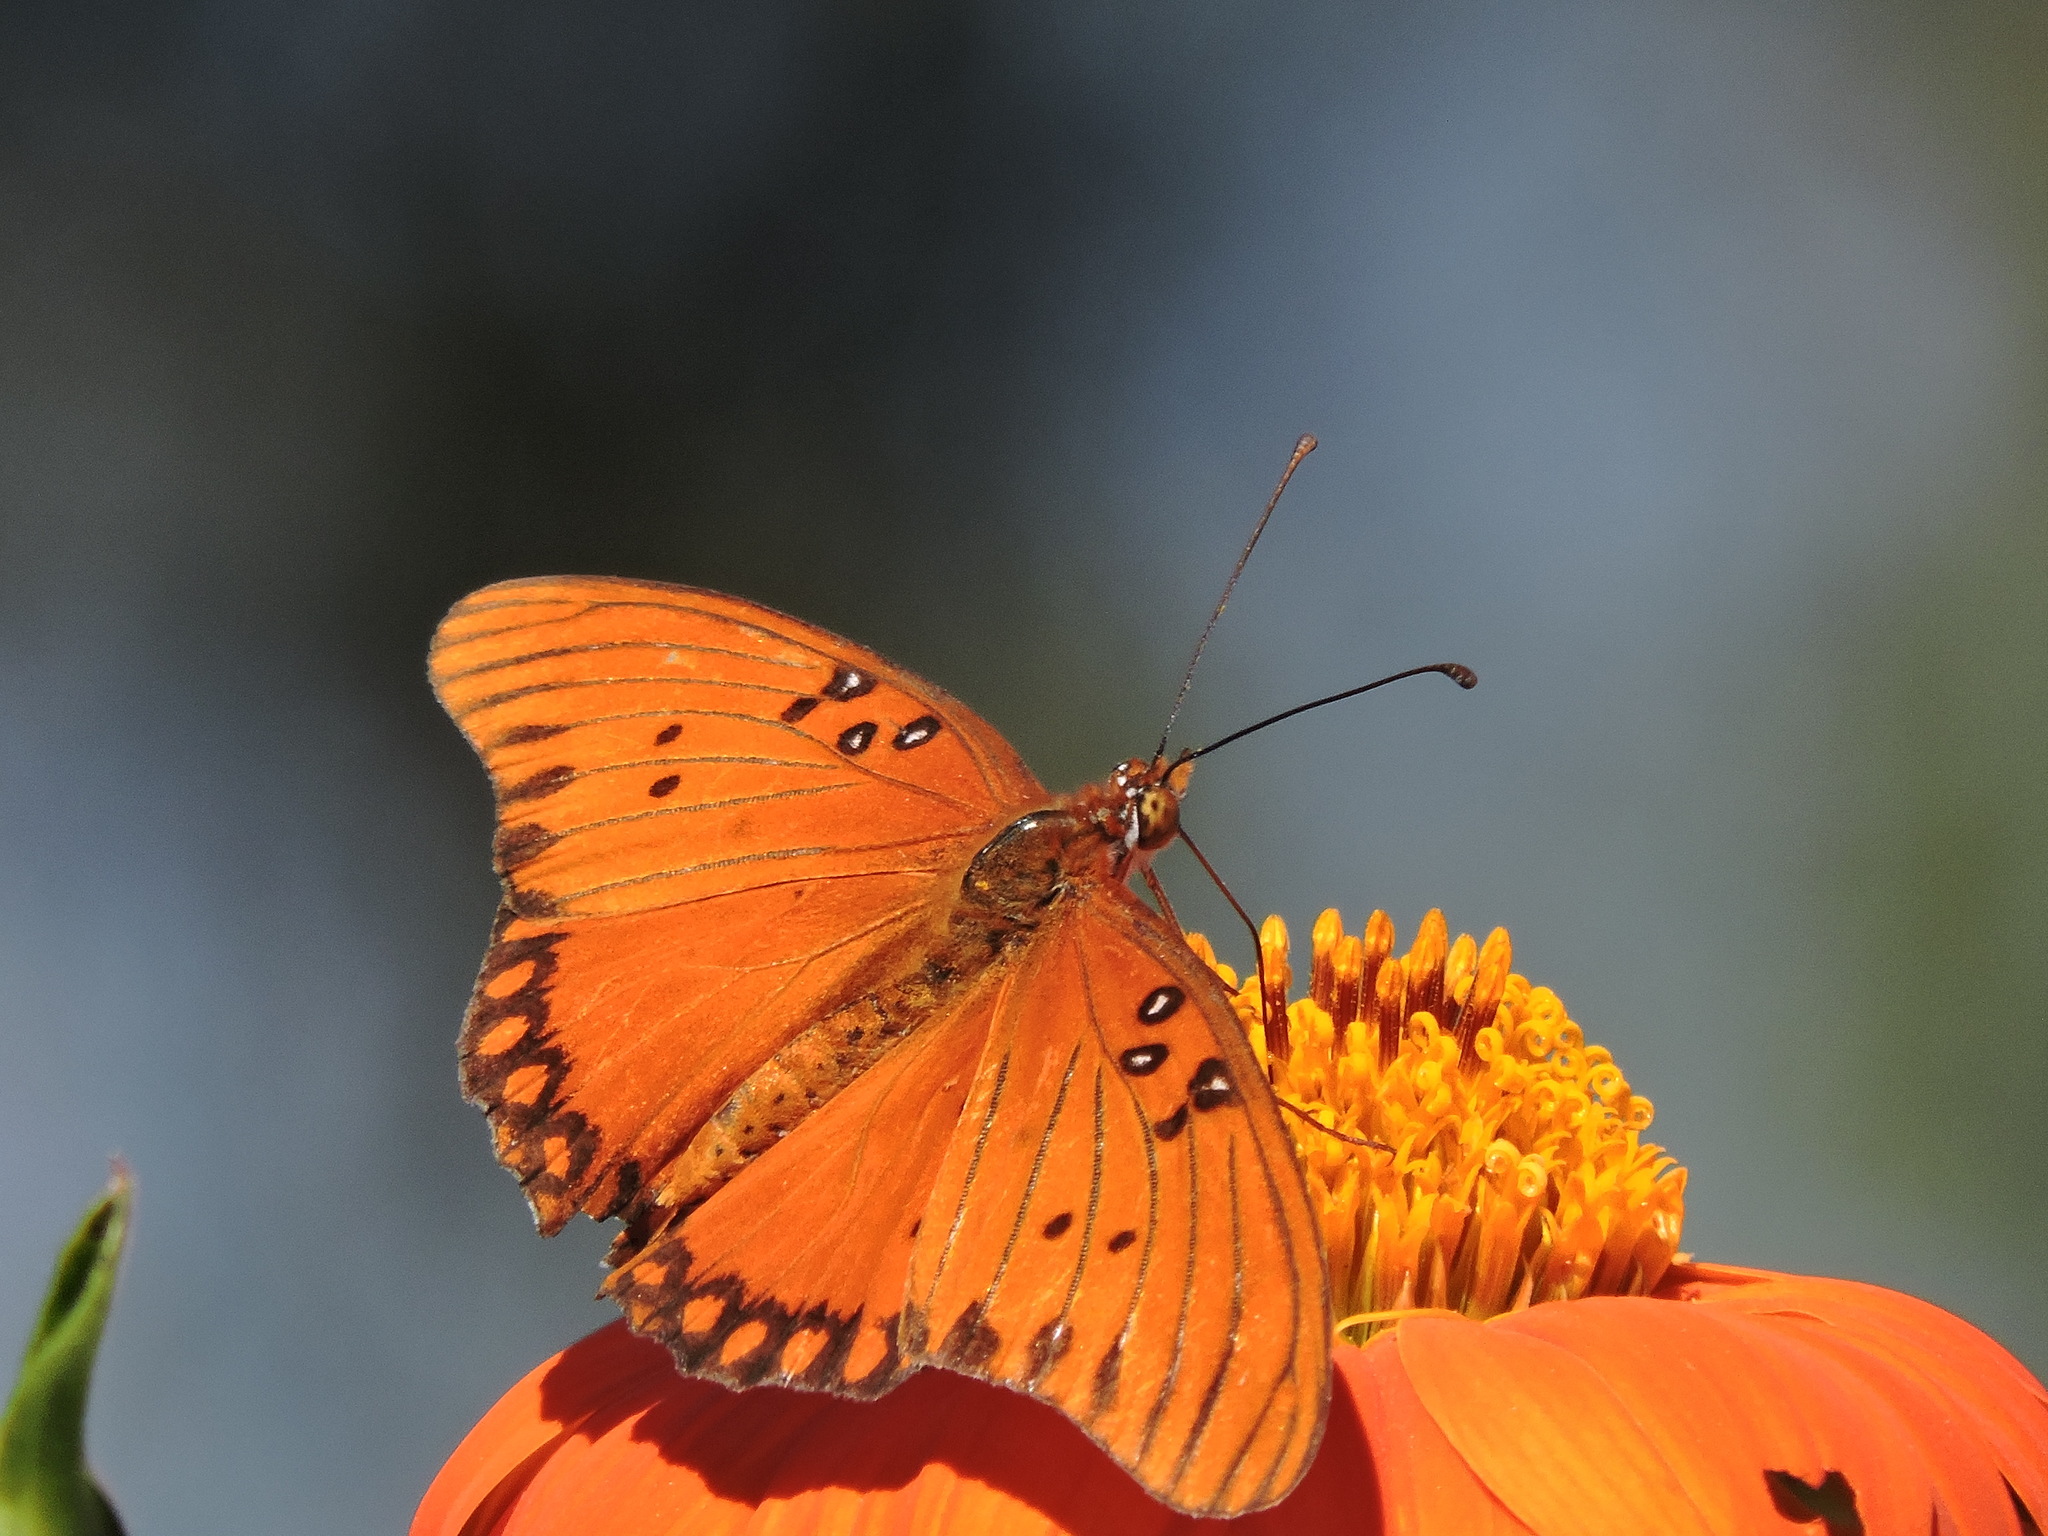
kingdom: Animalia
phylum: Arthropoda
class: Insecta
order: Lepidoptera
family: Nymphalidae
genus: Dione
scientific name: Dione vanillae
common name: Gulf fritillary
